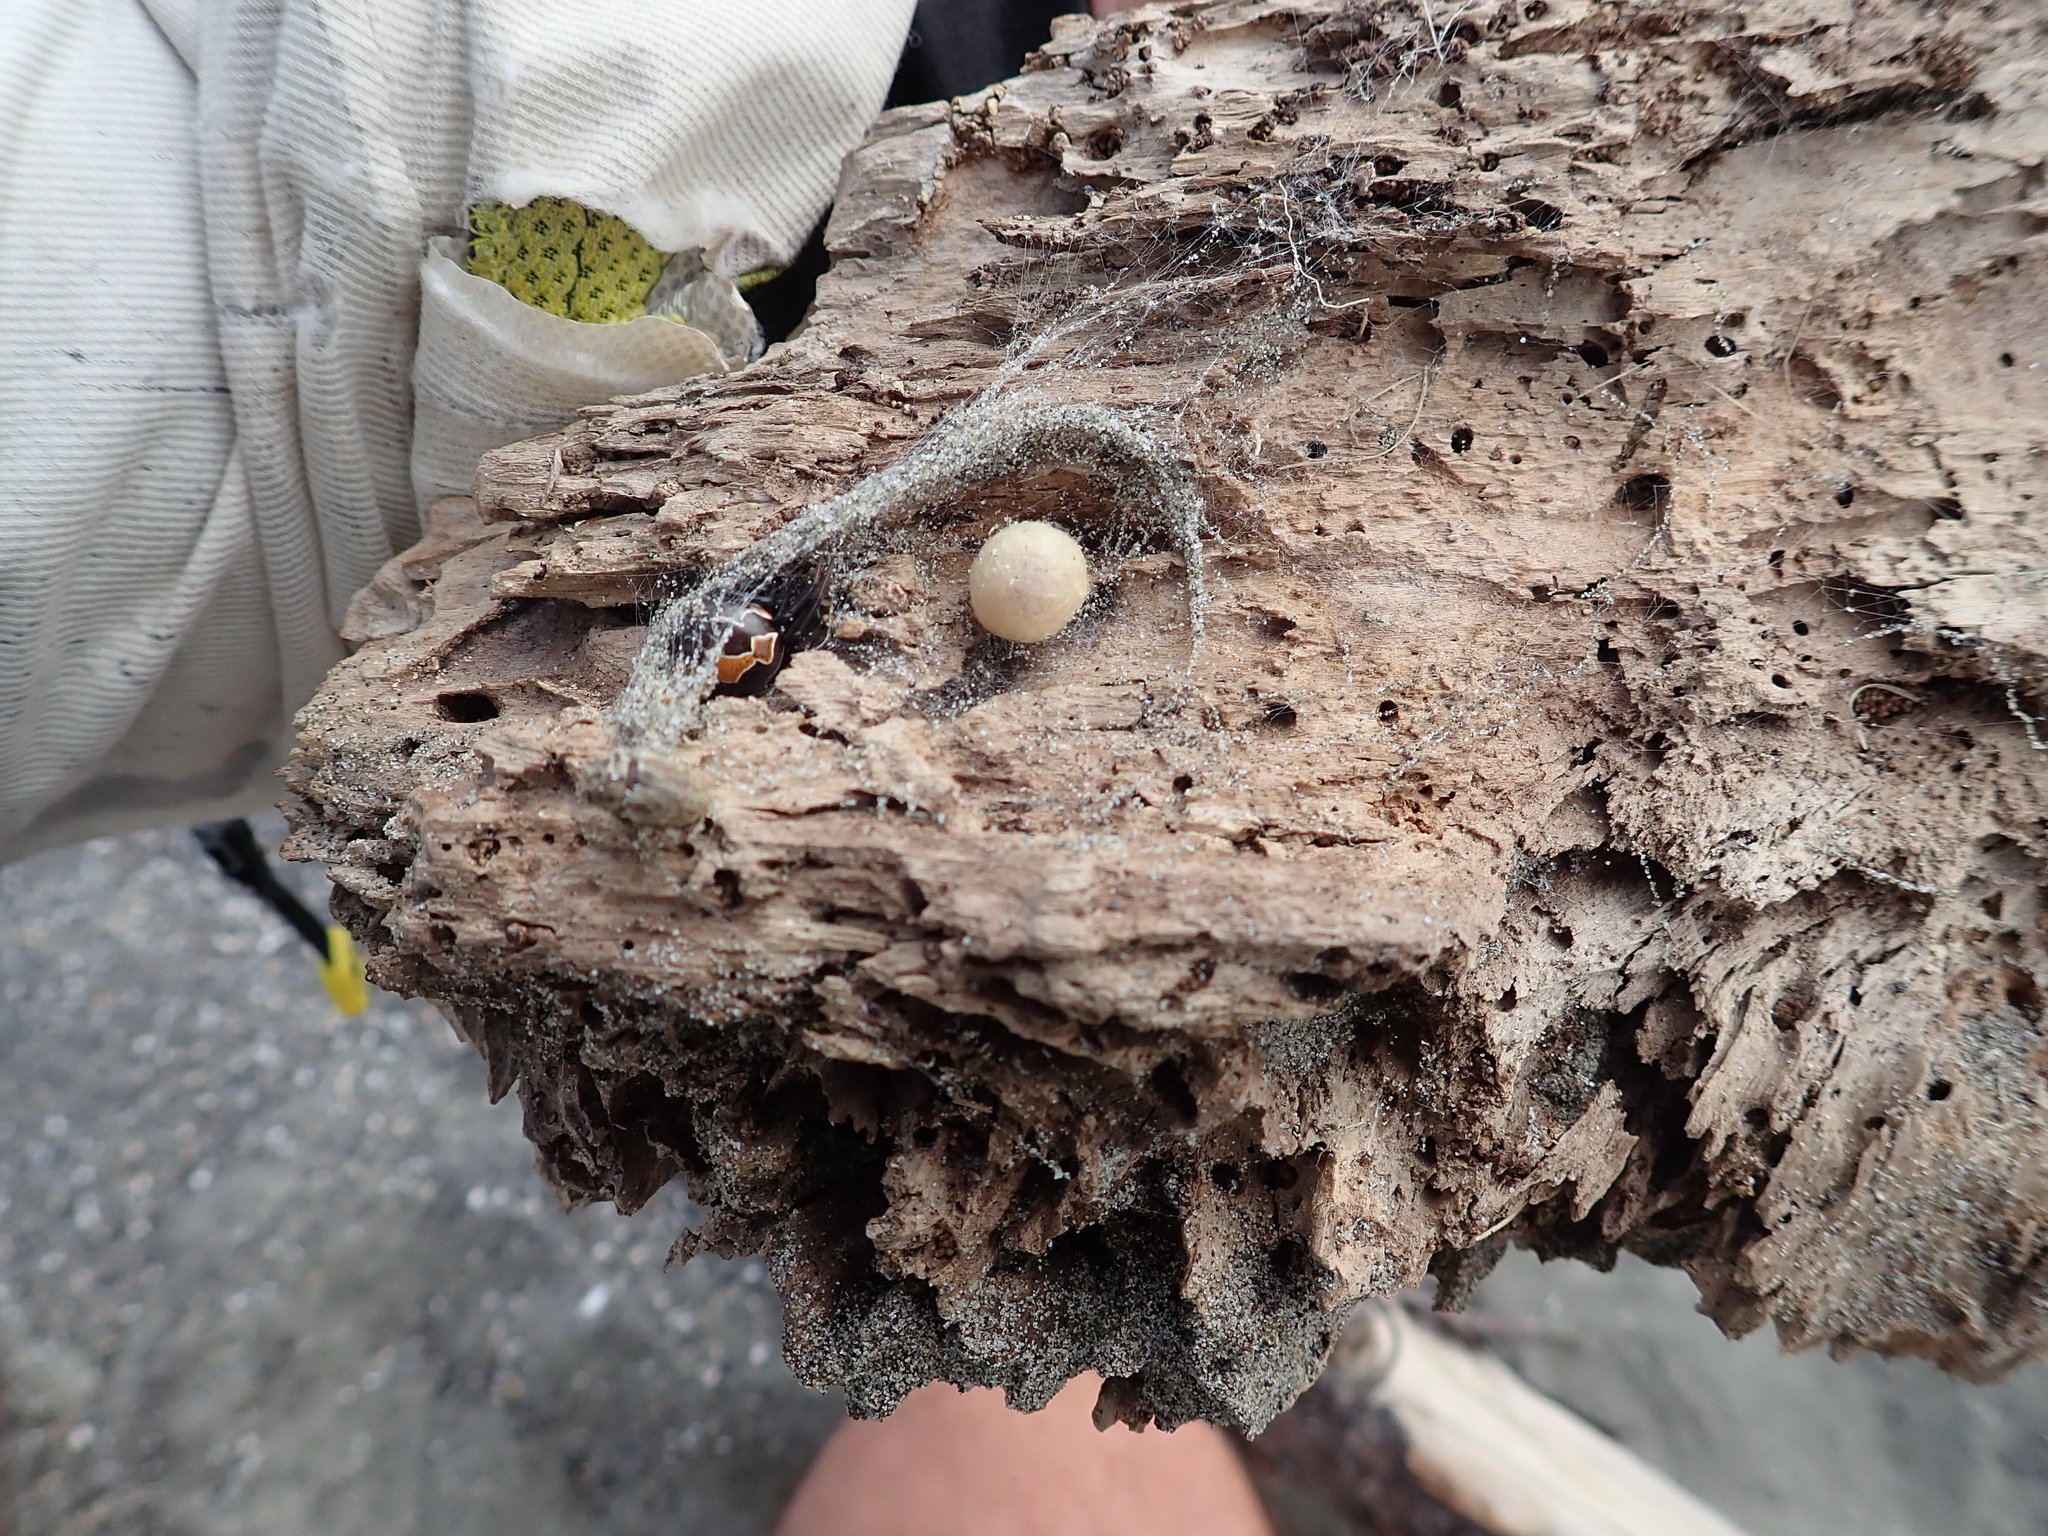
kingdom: Animalia
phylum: Arthropoda
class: Arachnida
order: Araneae
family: Theridiidae
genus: Latrodectus
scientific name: Latrodectus katipo
